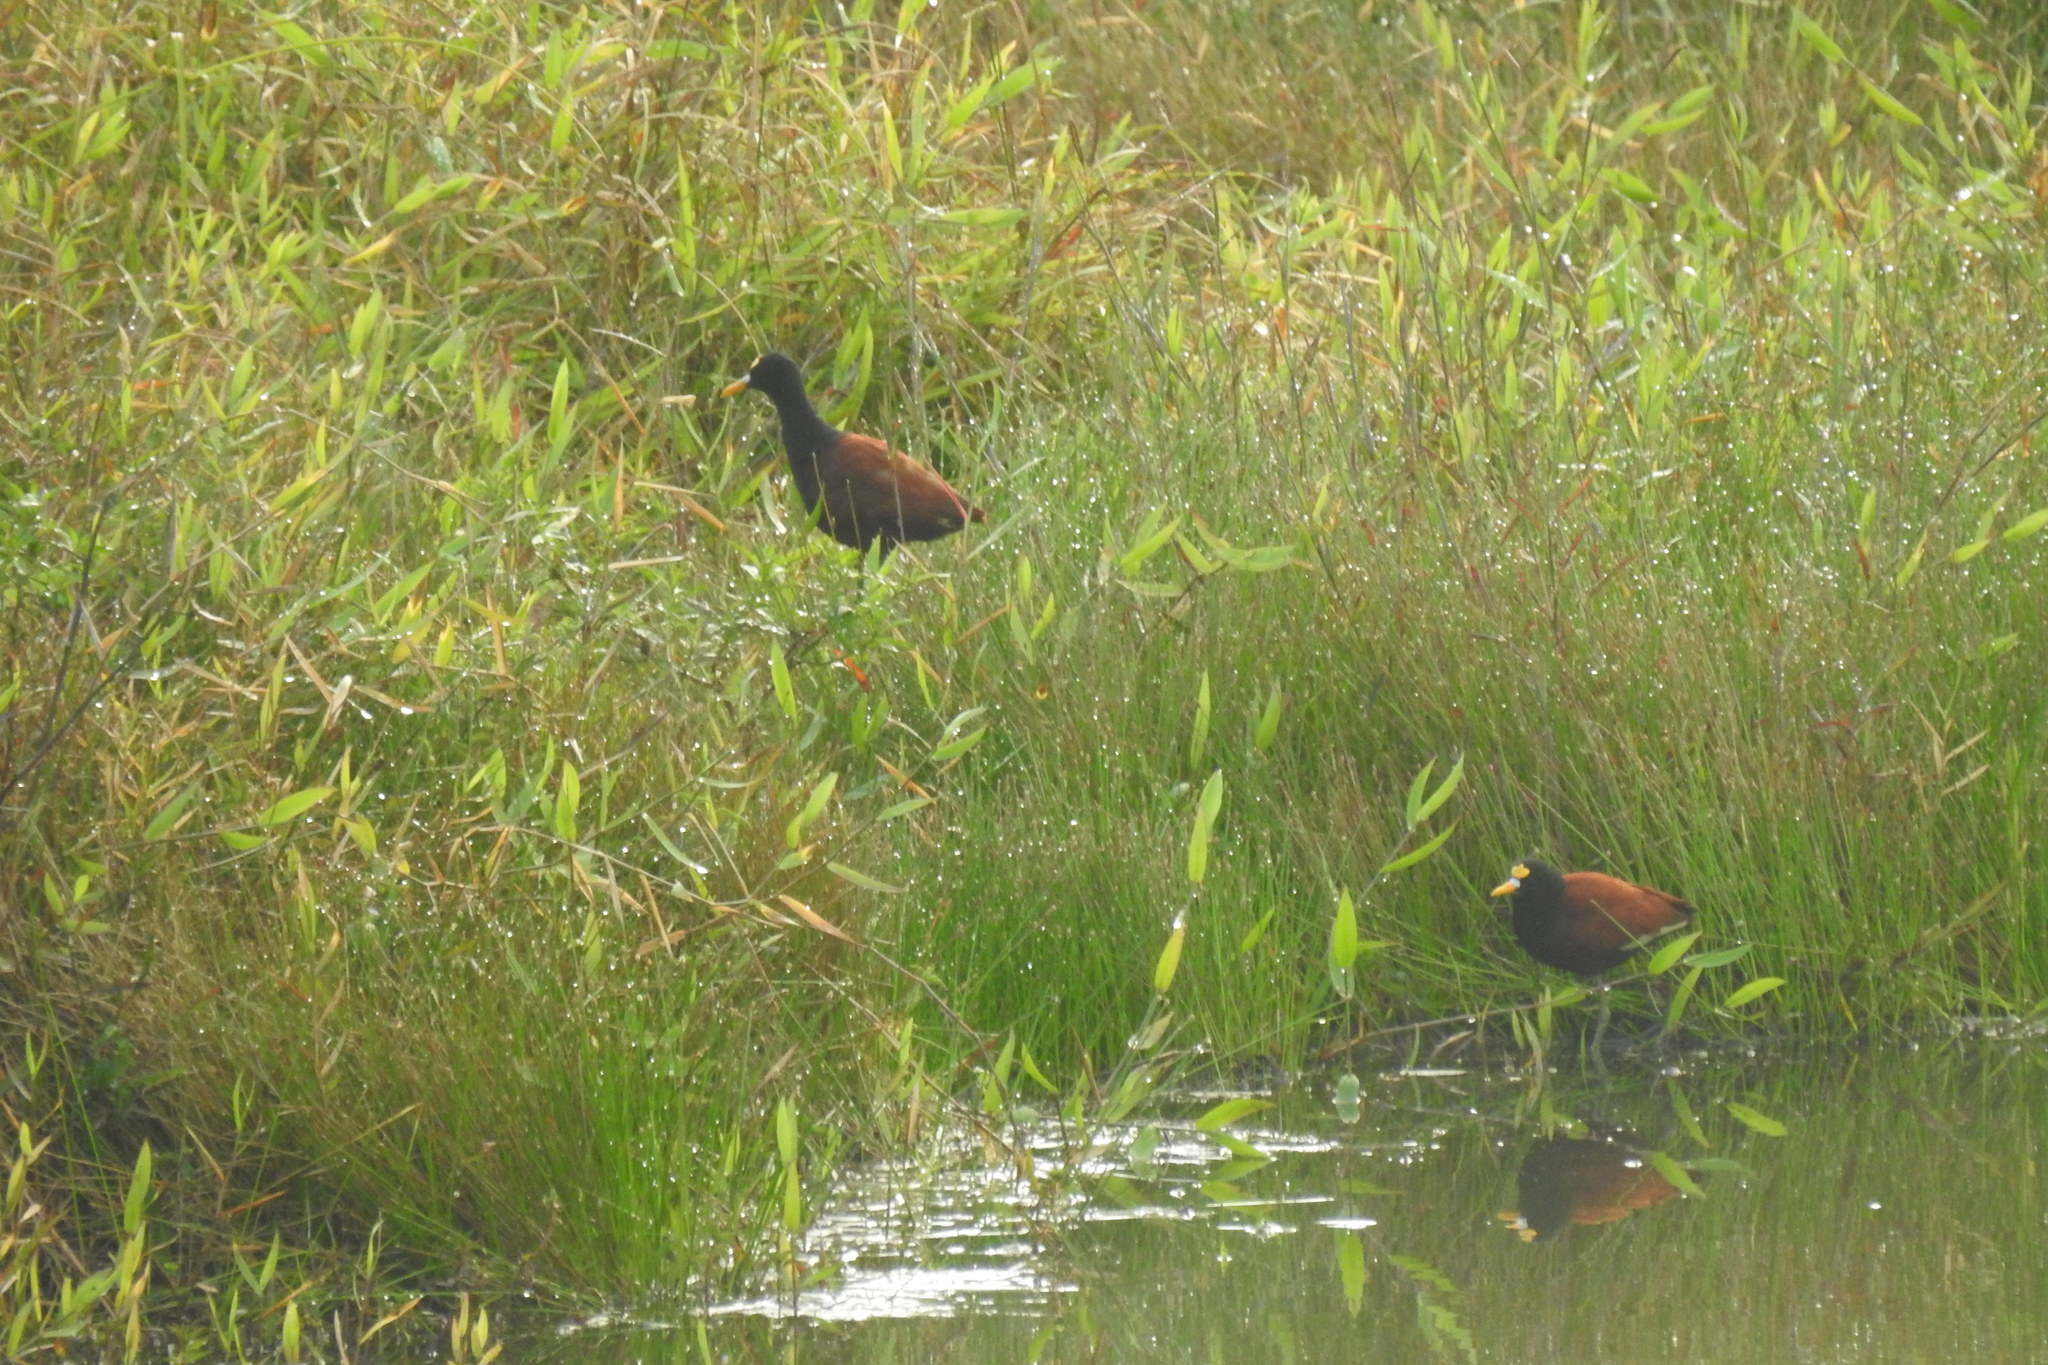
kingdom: Animalia
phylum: Chordata
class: Aves
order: Charadriiformes
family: Jacanidae
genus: Jacana
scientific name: Jacana spinosa
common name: Northern jacana
